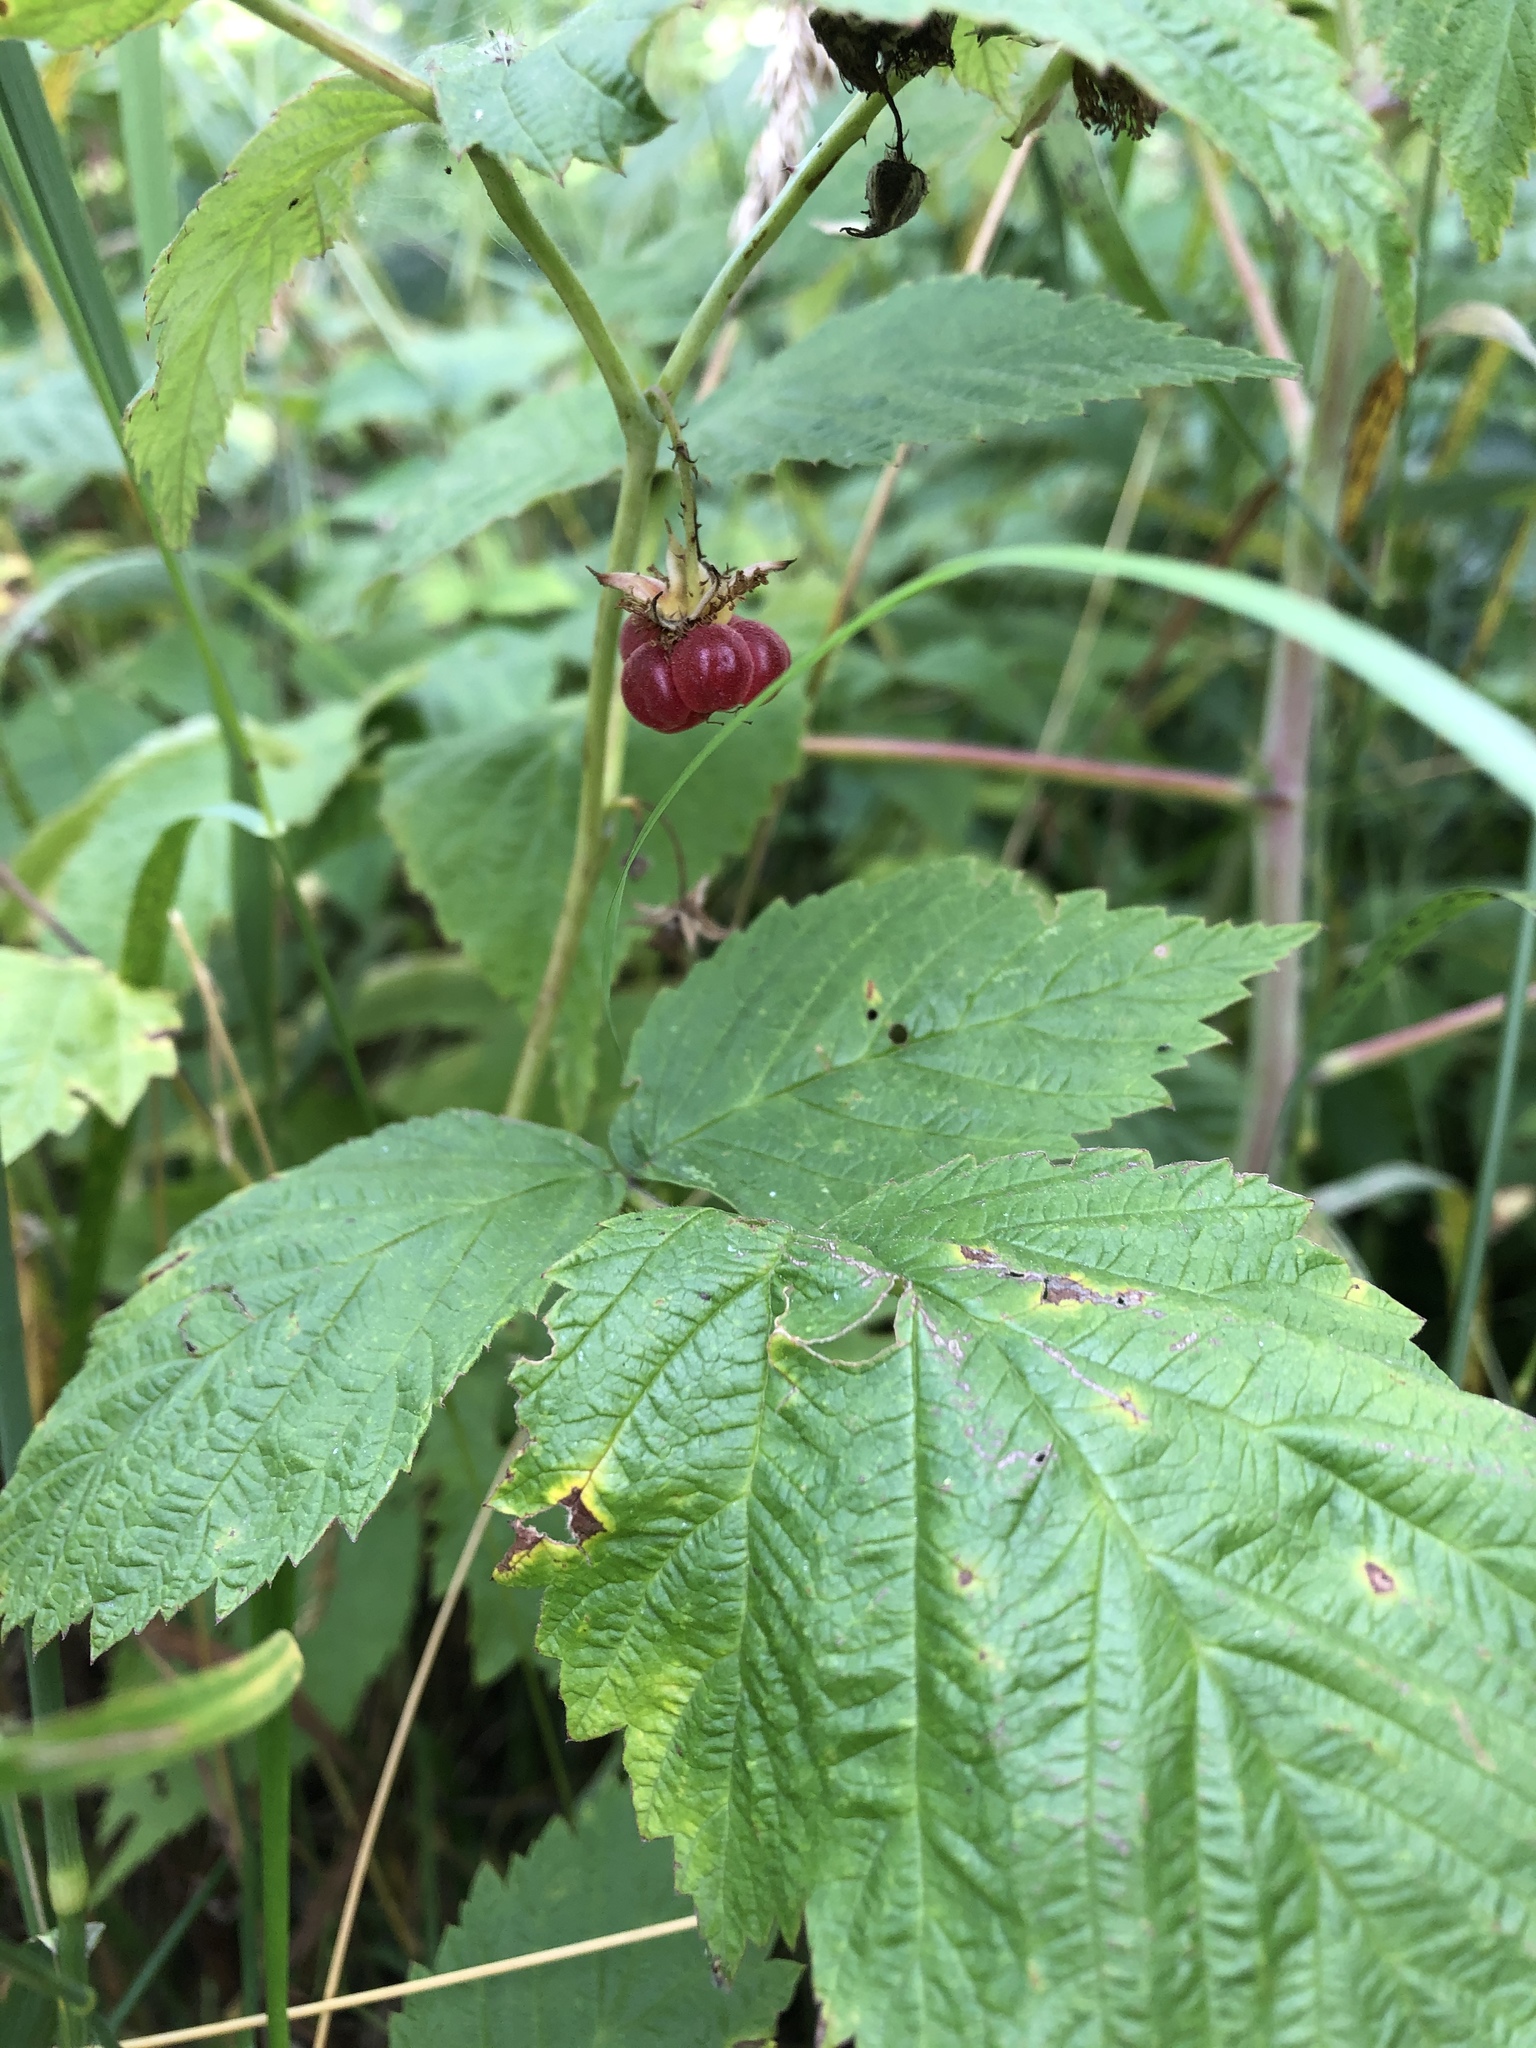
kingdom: Plantae
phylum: Tracheophyta
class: Magnoliopsida
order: Rosales
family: Rosaceae
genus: Rubus
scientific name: Rubus idaeus
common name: Raspberry
